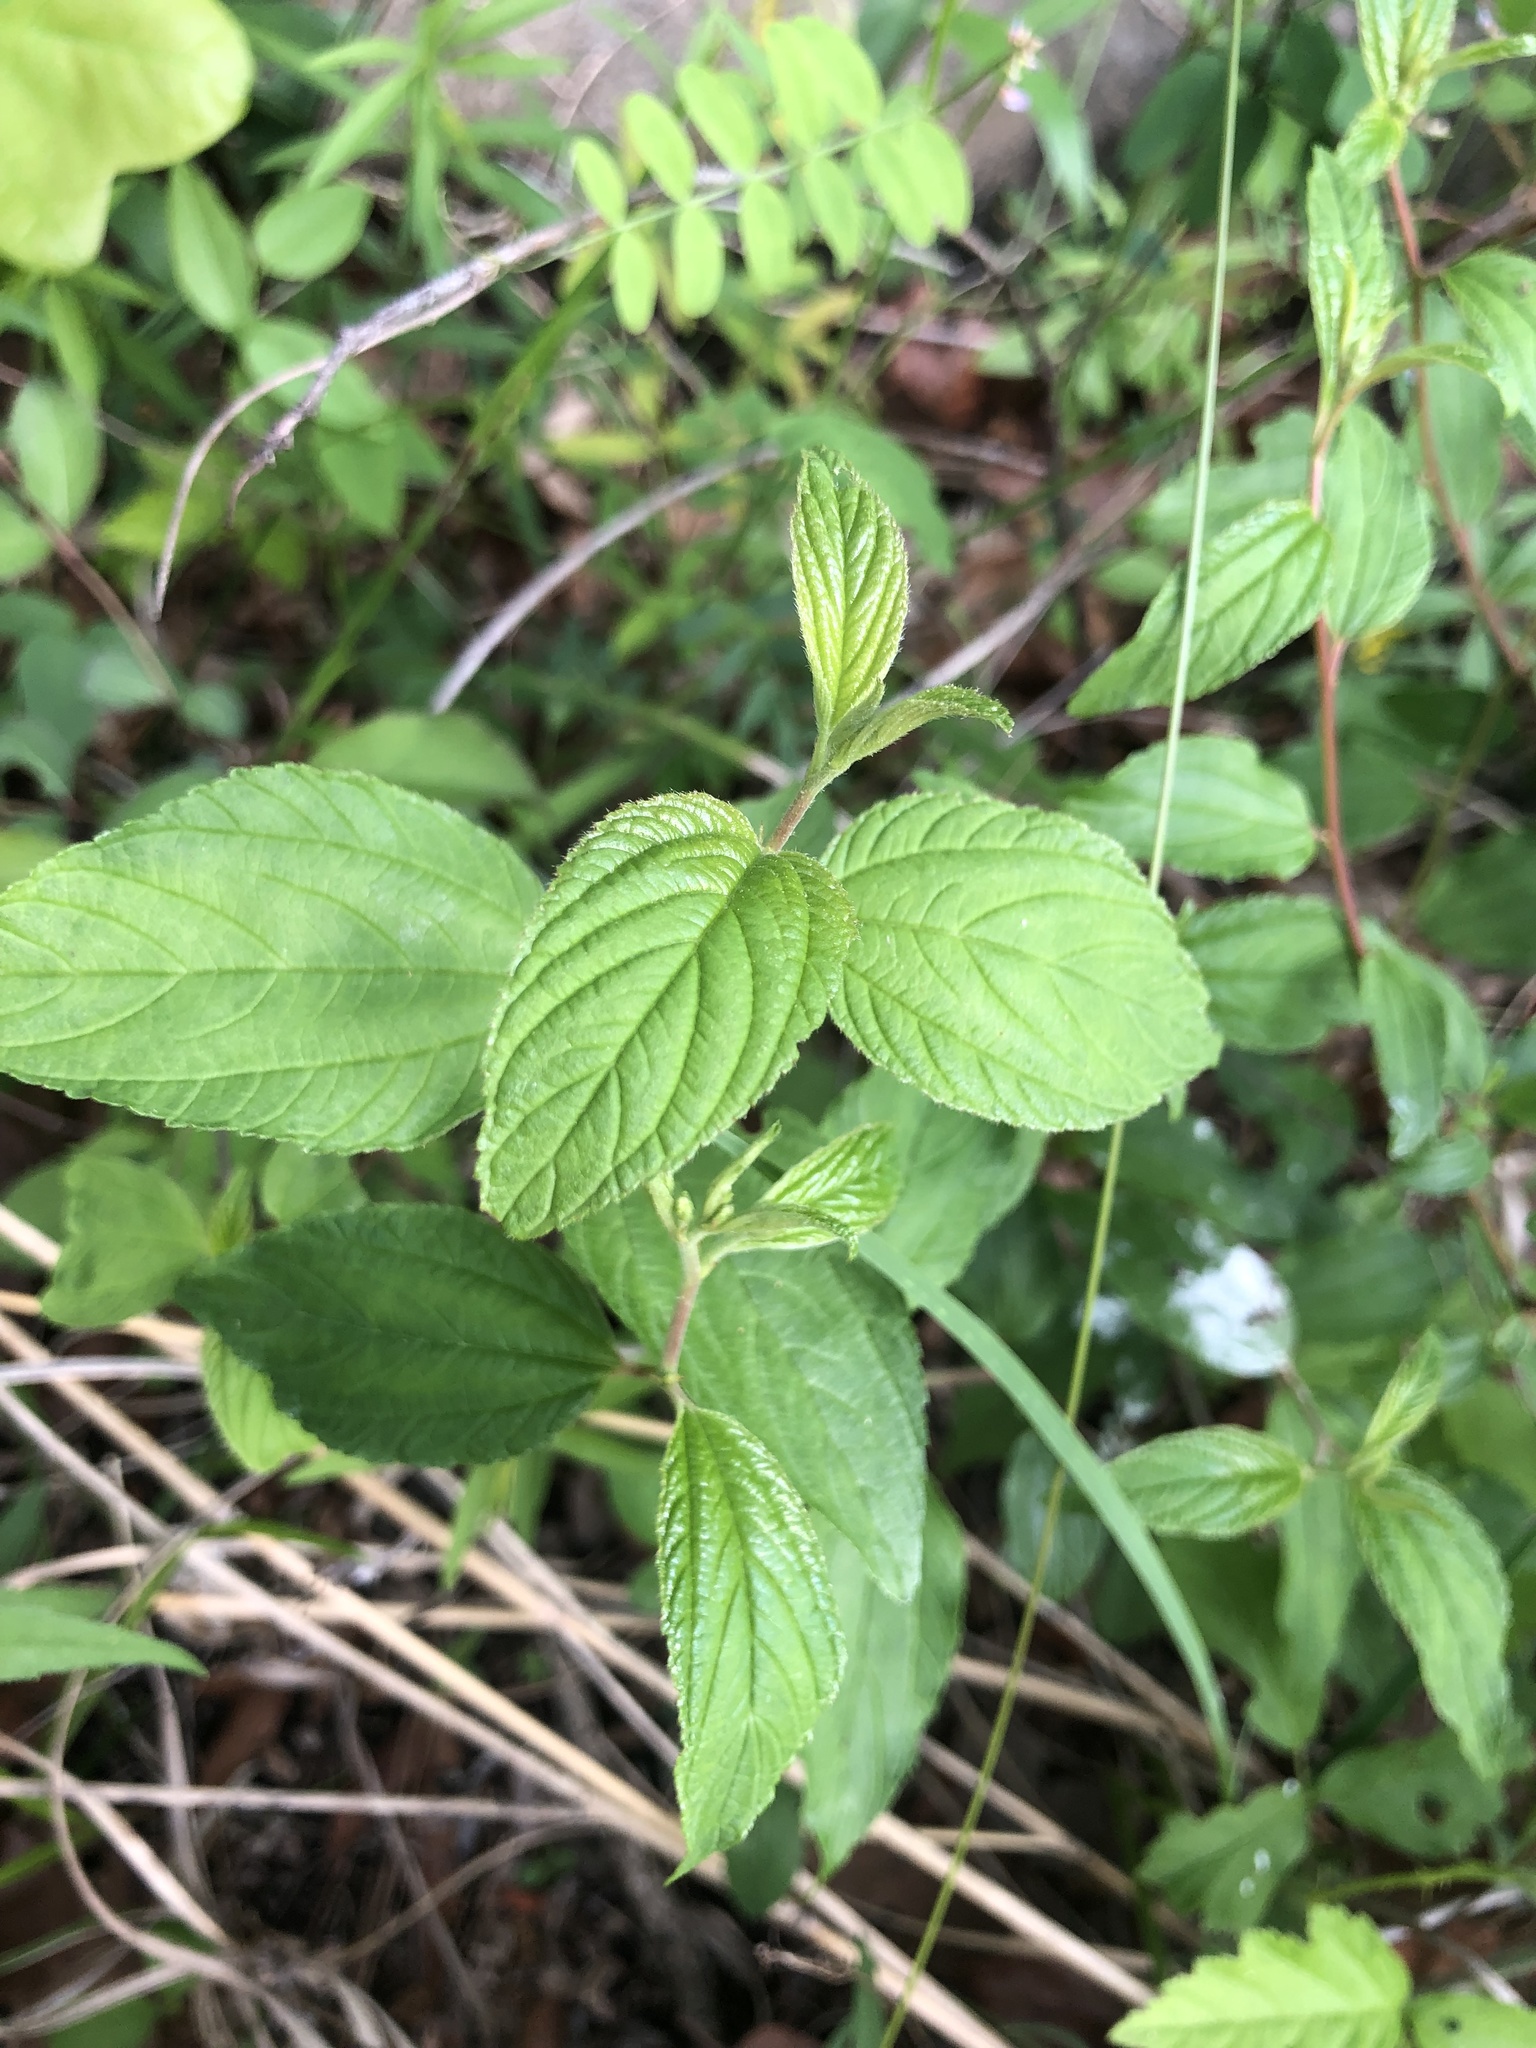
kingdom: Plantae
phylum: Tracheophyta
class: Magnoliopsida
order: Rosales
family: Rhamnaceae
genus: Ceanothus
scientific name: Ceanothus americanus
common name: Redroot
